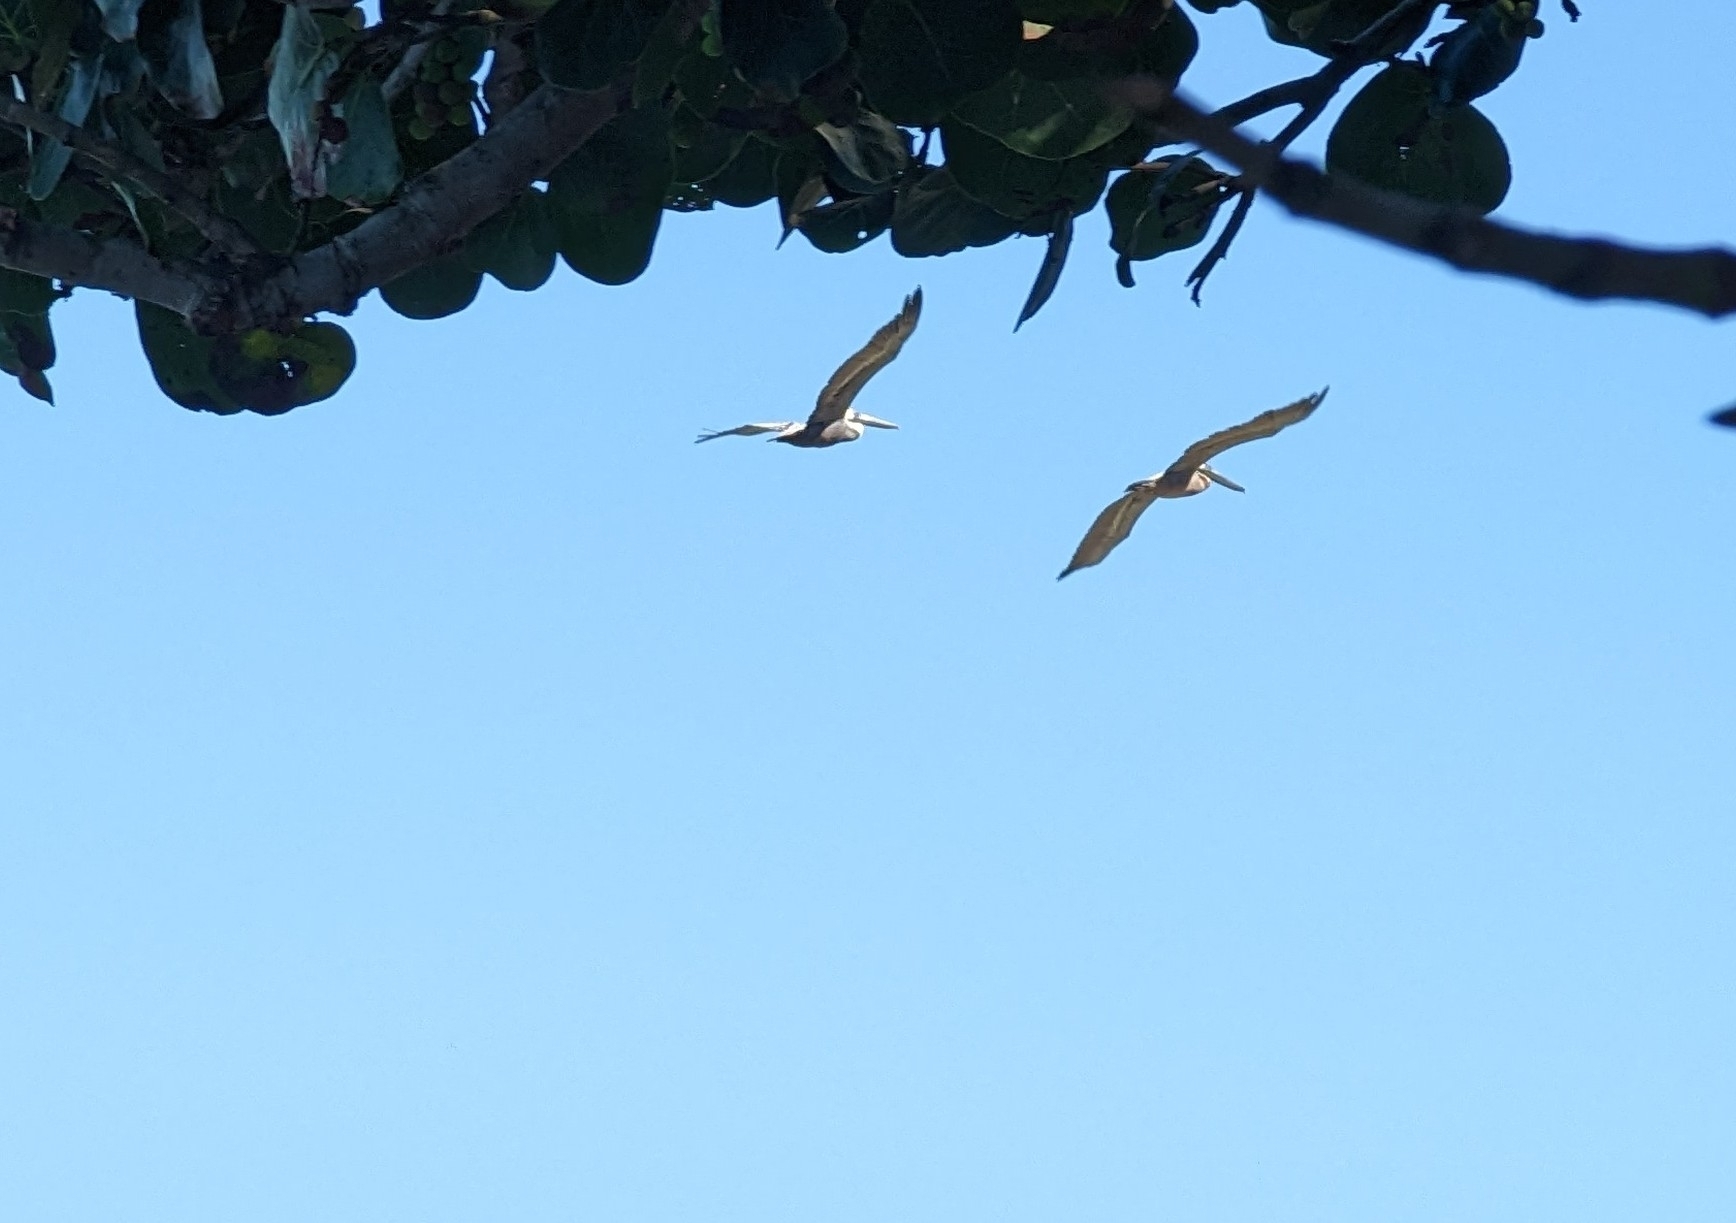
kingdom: Animalia
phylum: Chordata
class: Aves
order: Pelecaniformes
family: Pelecanidae
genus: Pelecanus
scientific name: Pelecanus occidentalis
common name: Brown pelican
